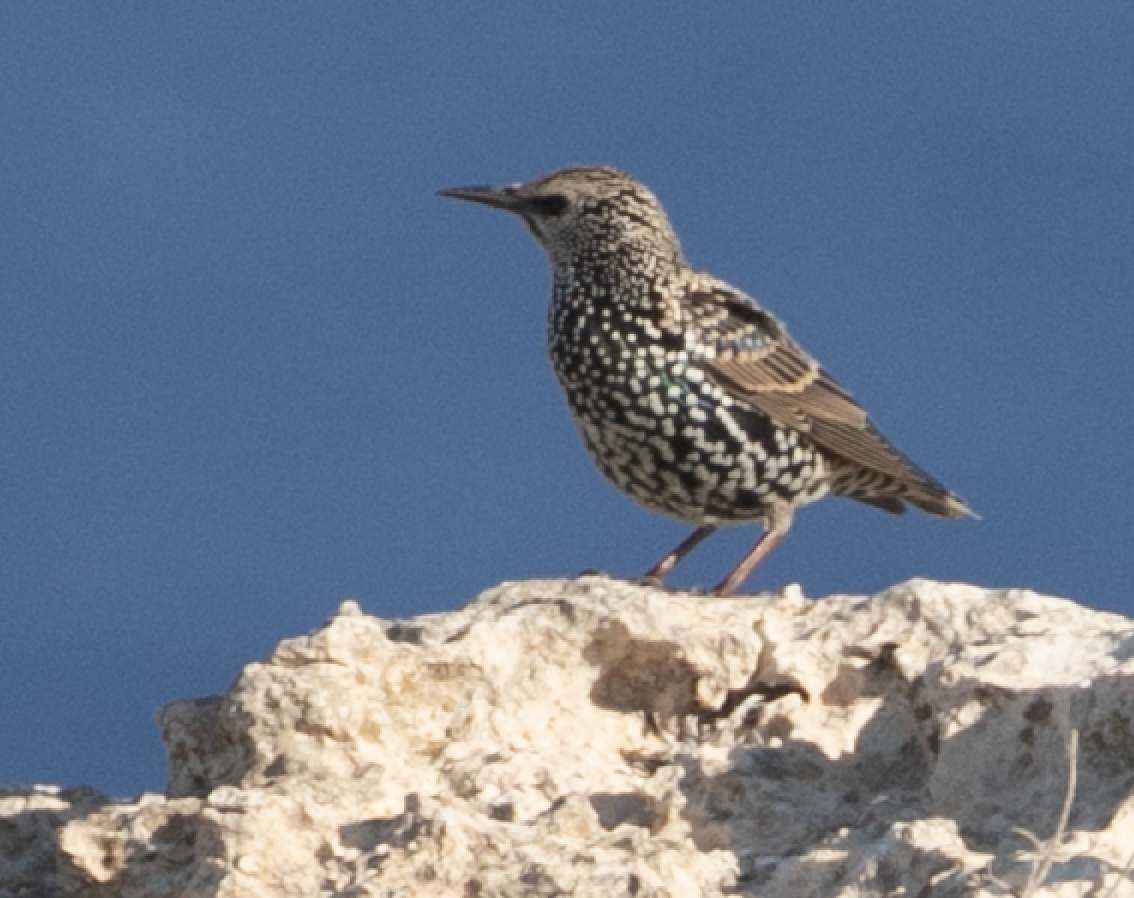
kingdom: Animalia
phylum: Chordata
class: Aves
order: Passeriformes
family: Sturnidae
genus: Sturnus
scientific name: Sturnus vulgaris
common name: Common starling
